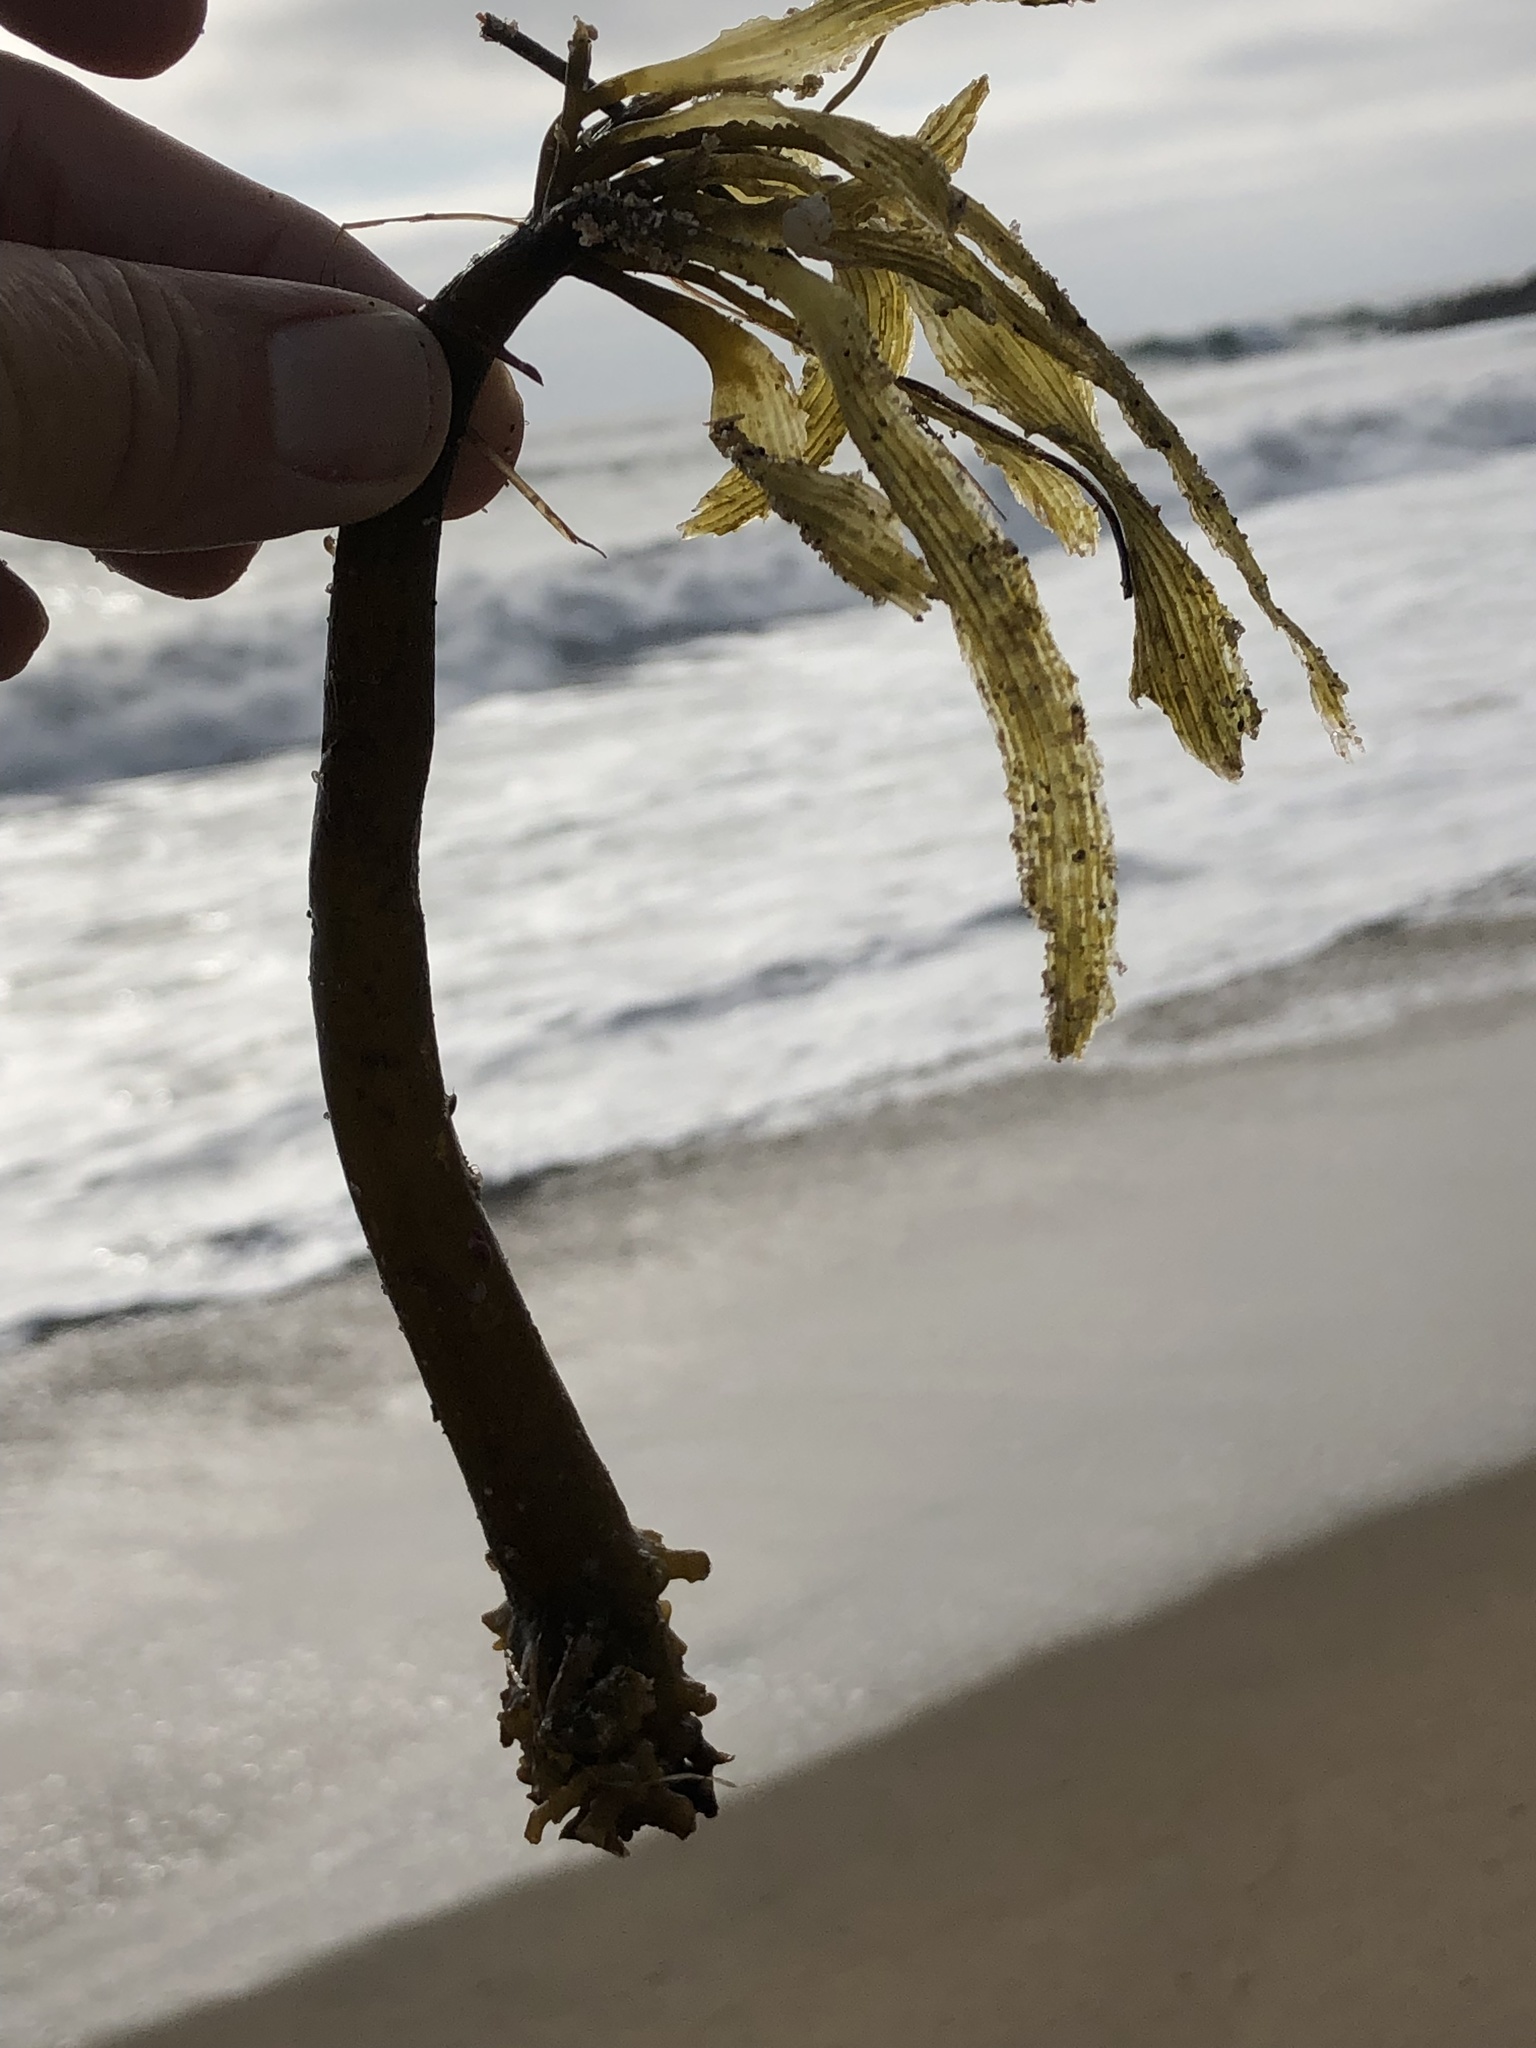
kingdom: Chromista
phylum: Ochrophyta
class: Phaeophyceae
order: Laminariales
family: Laminariaceae
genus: Postelsia
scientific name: Postelsia palmiformis
